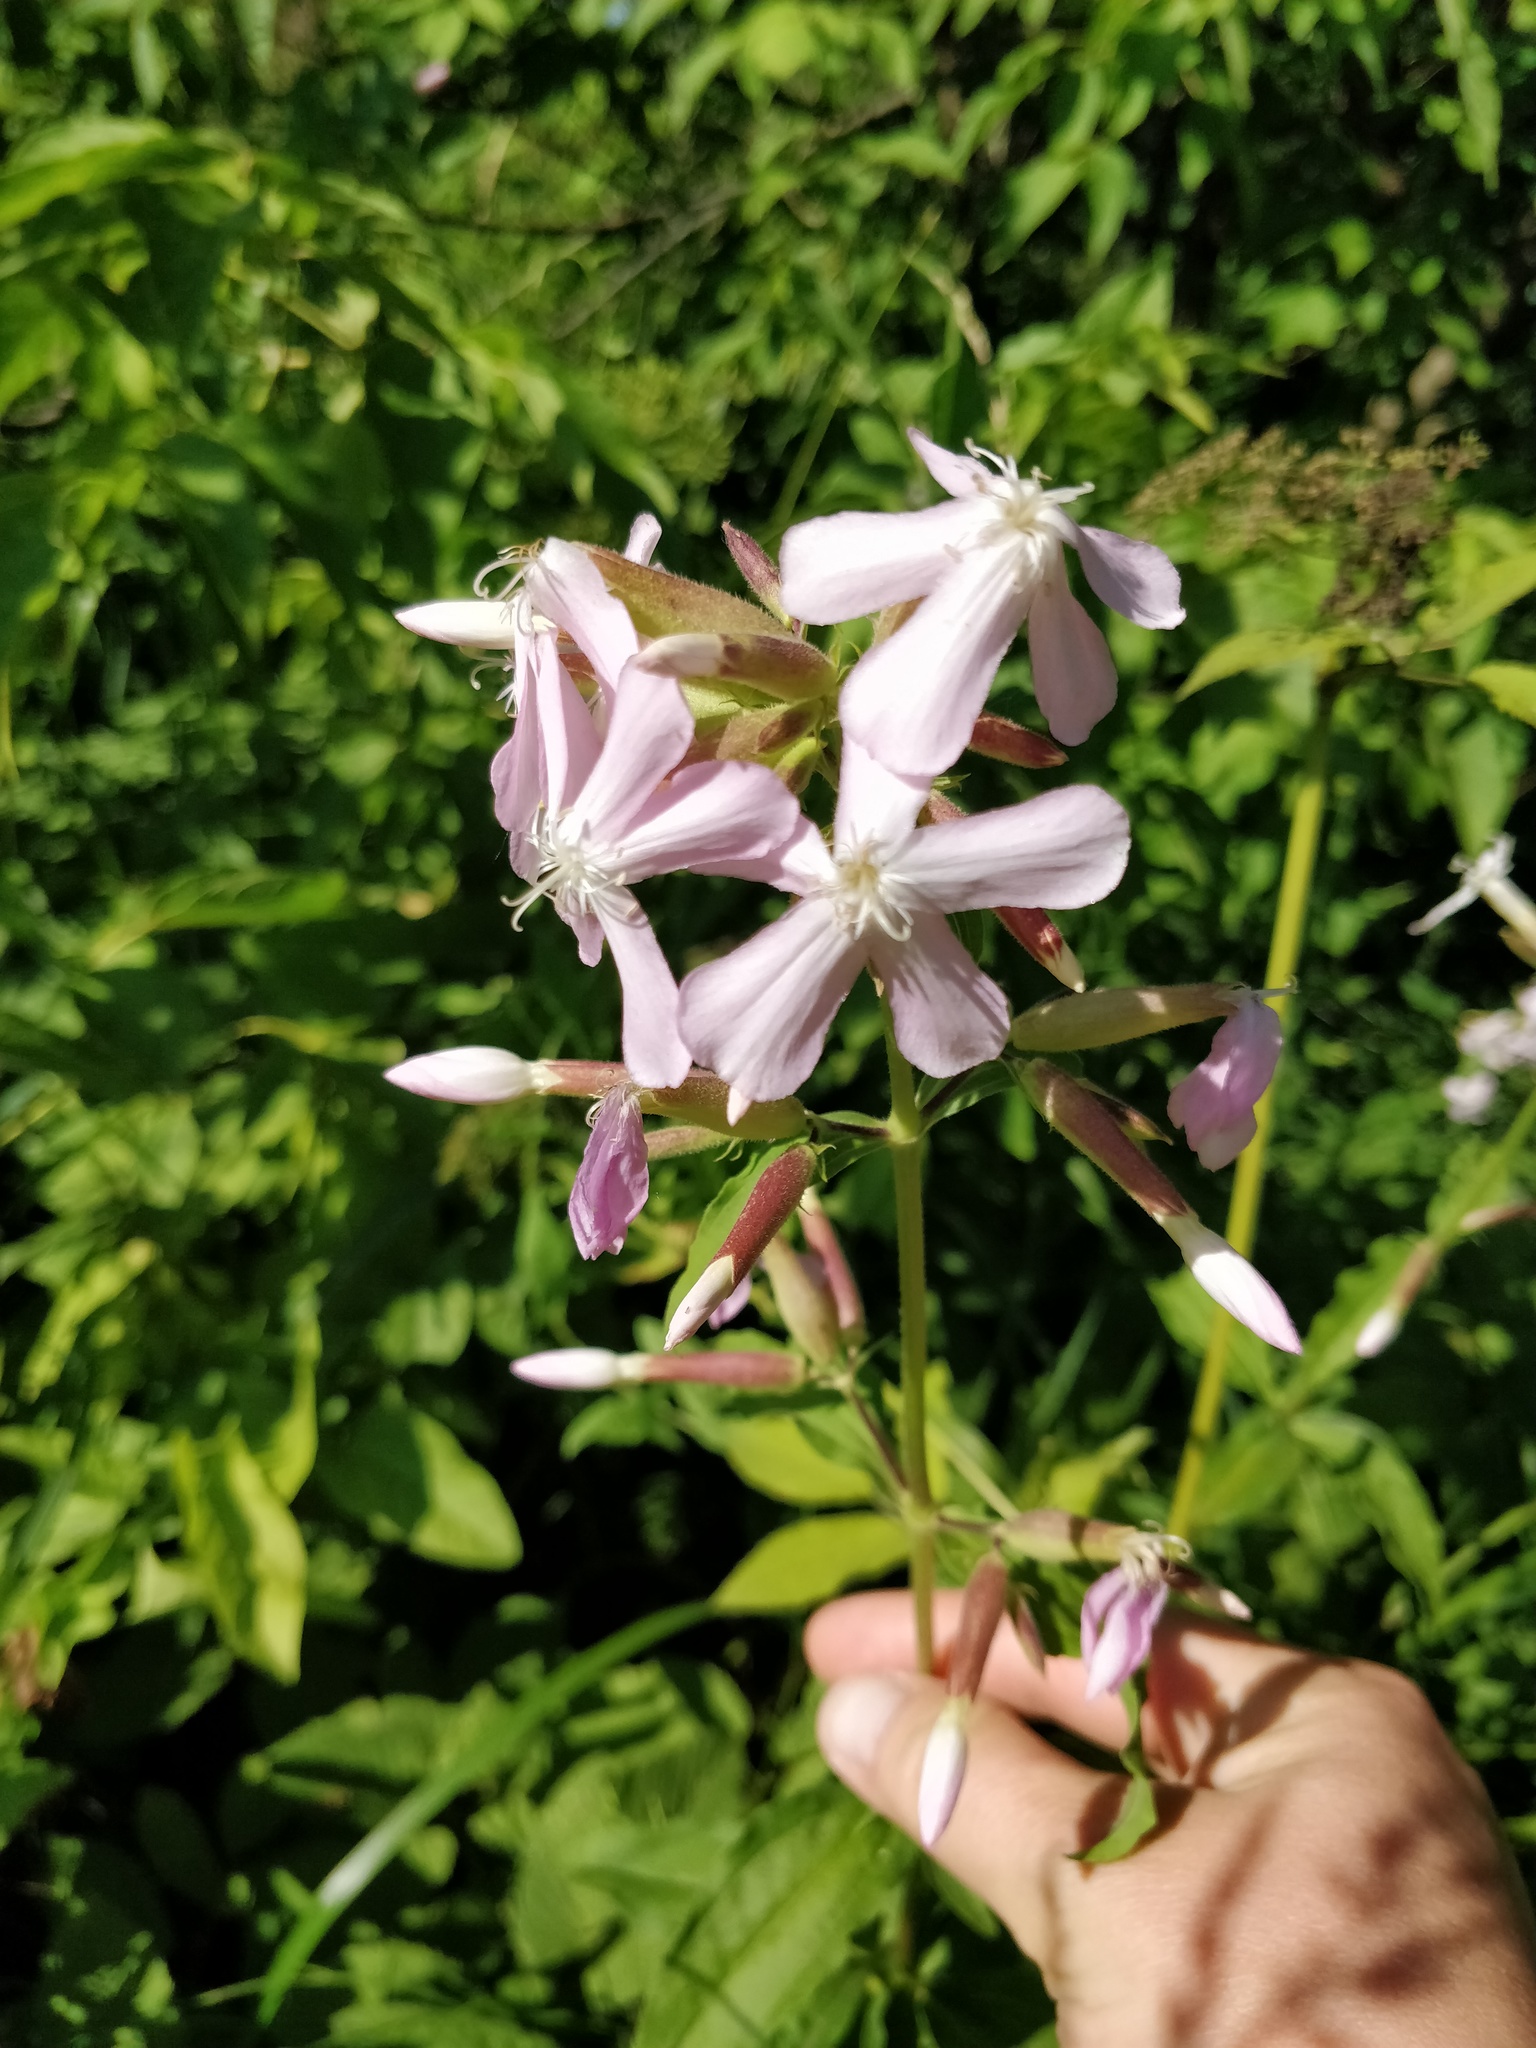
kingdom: Plantae
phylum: Tracheophyta
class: Magnoliopsida
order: Caryophyllales
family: Caryophyllaceae
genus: Saponaria
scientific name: Saponaria officinalis
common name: Soapwort
